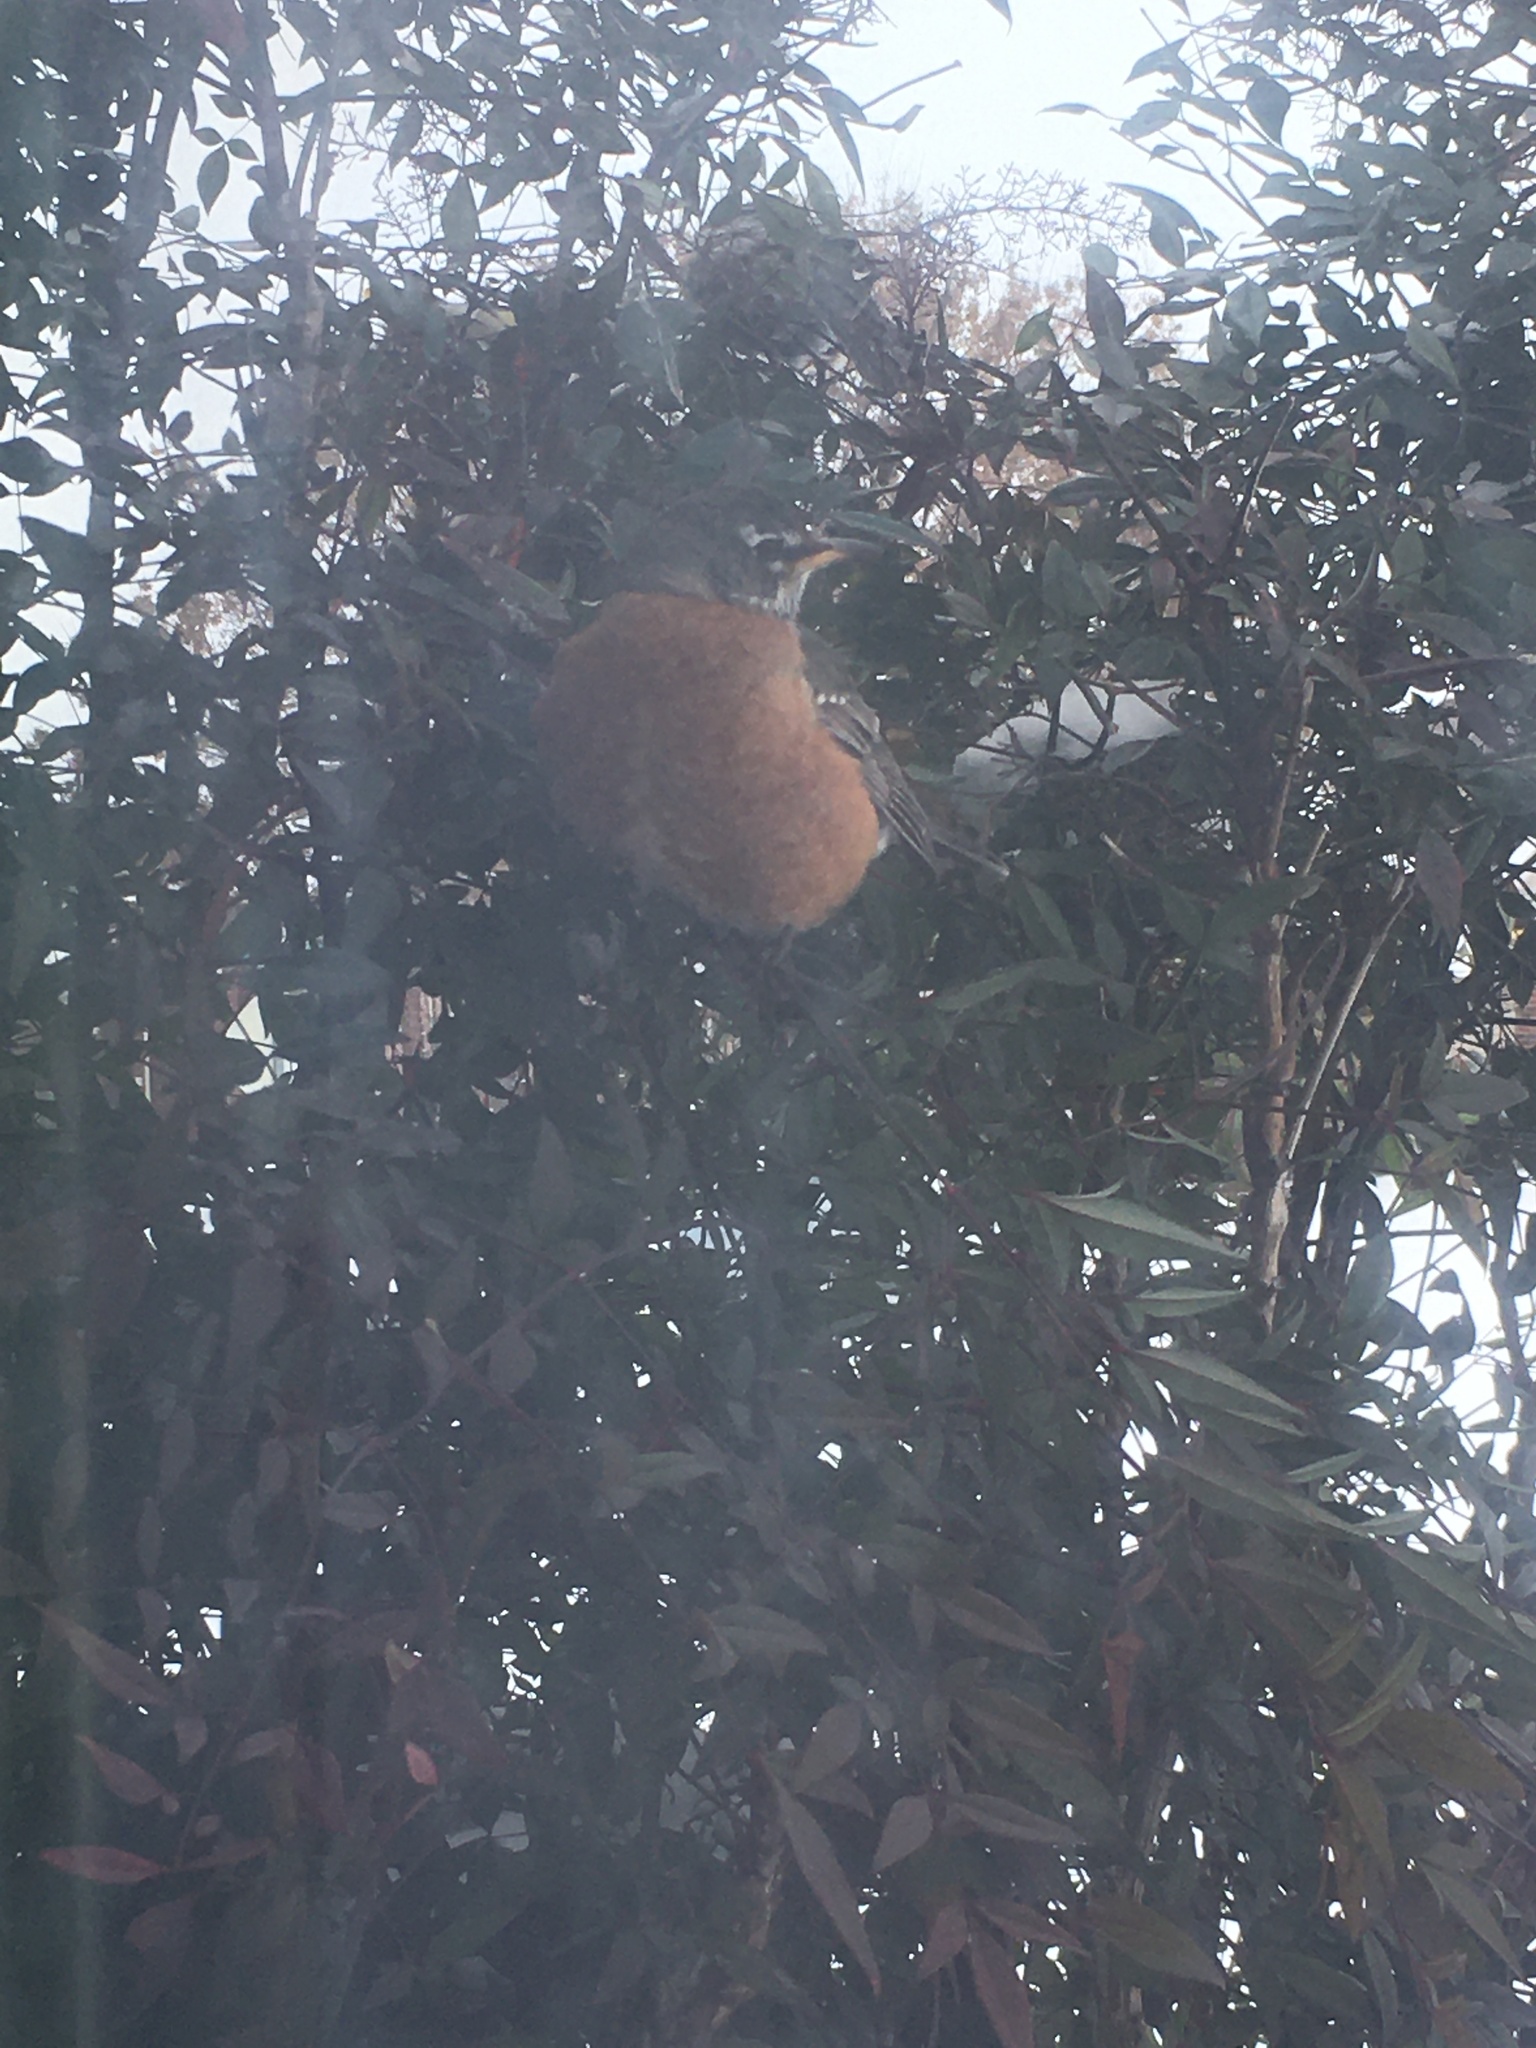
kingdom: Animalia
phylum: Chordata
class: Aves
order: Passeriformes
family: Turdidae
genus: Turdus
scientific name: Turdus migratorius
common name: American robin
